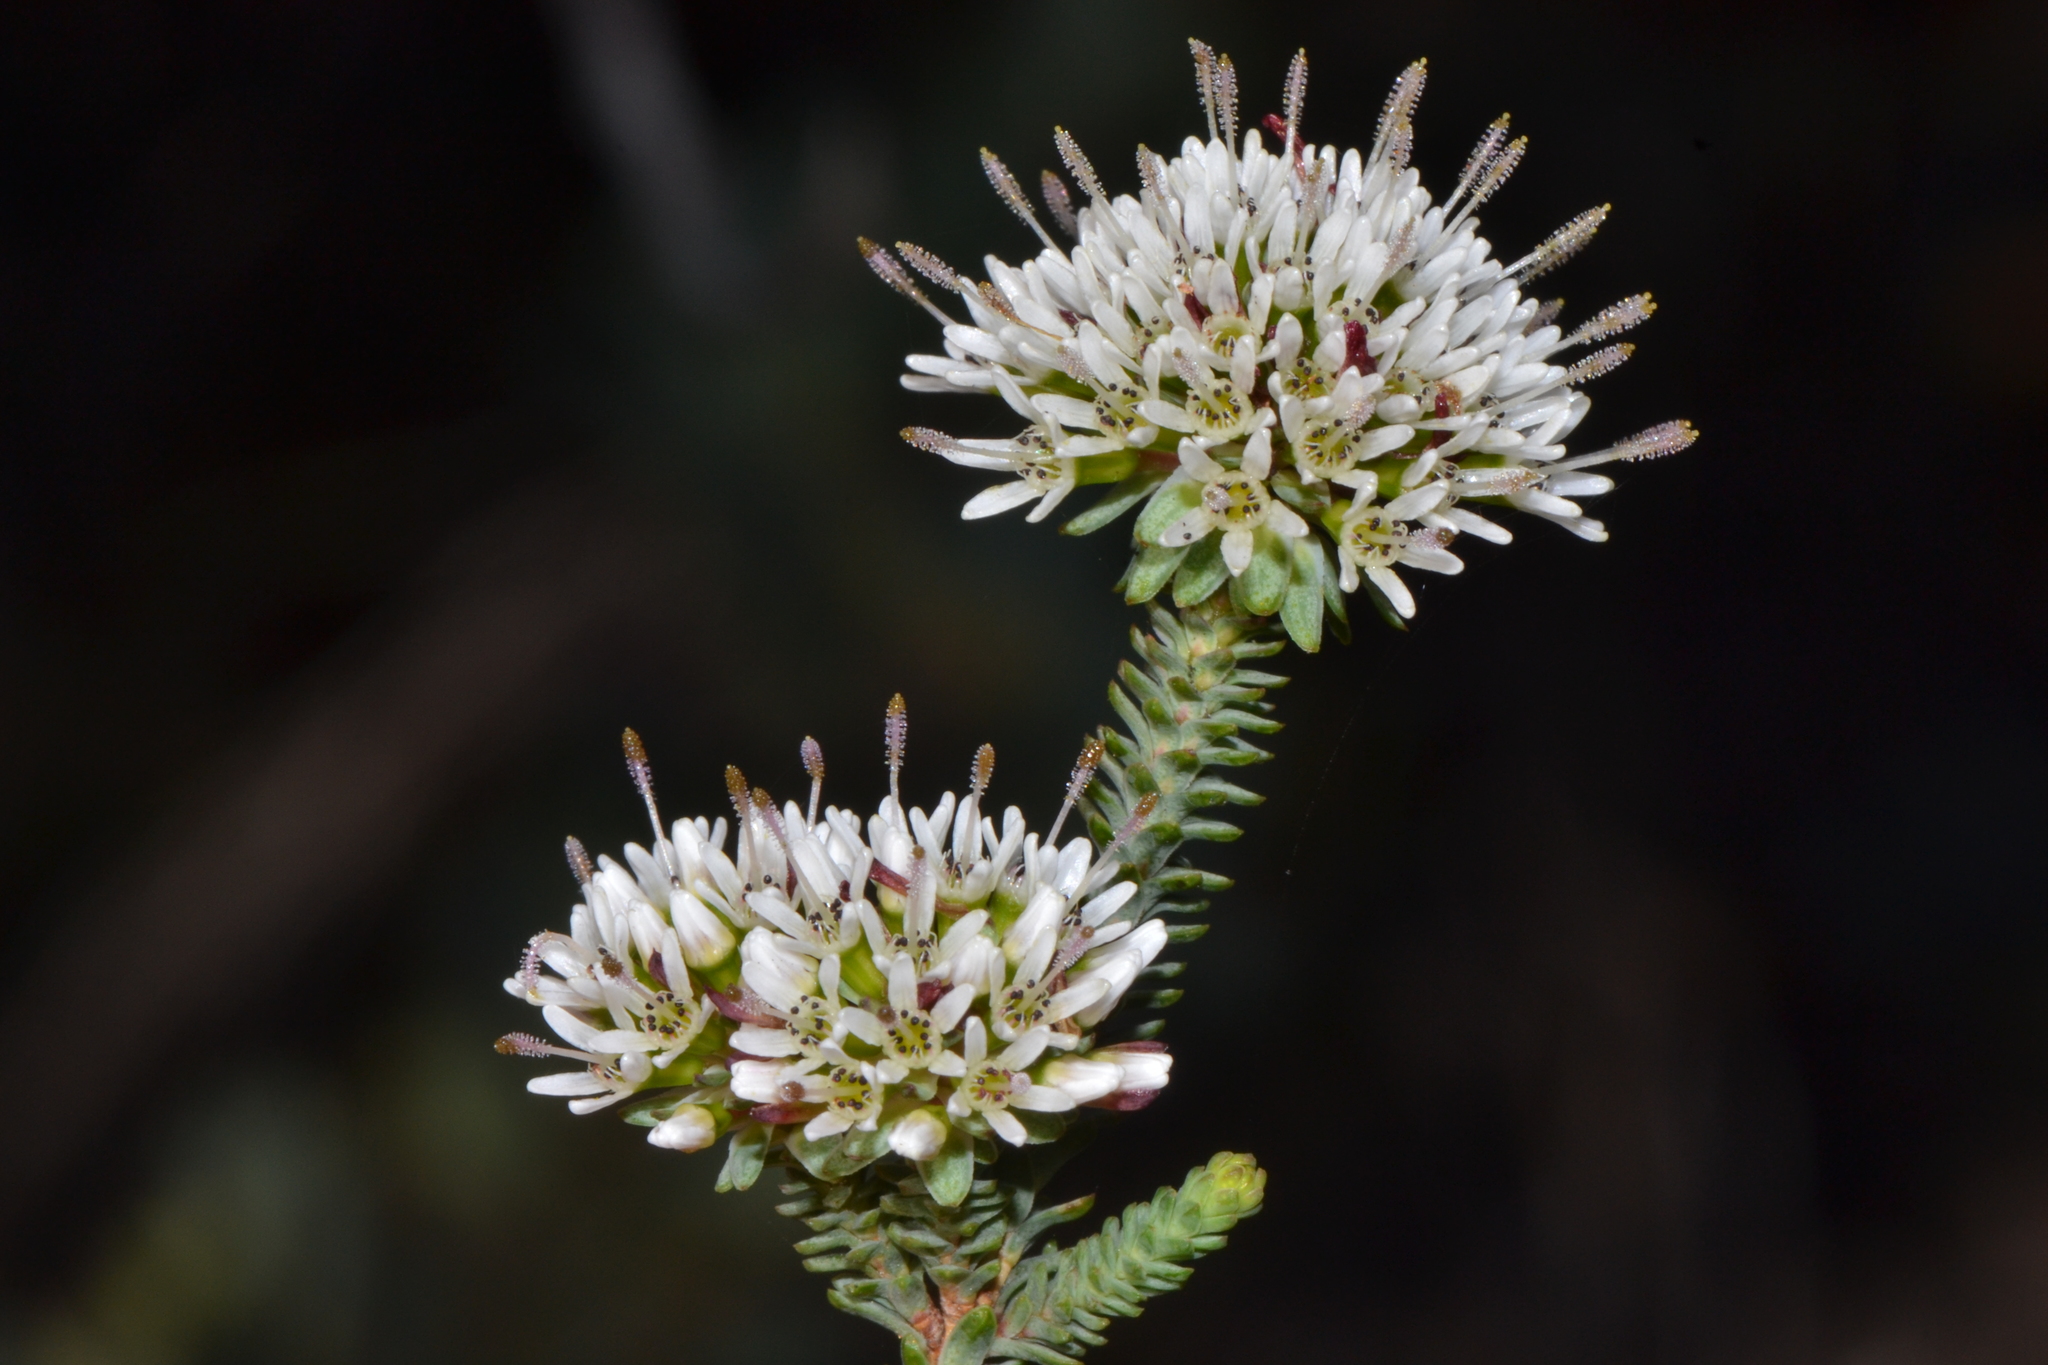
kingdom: Plantae
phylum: Tracheophyta
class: Magnoliopsida
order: Myrtales
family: Myrtaceae
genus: Darwinia
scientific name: Darwinia vestita
